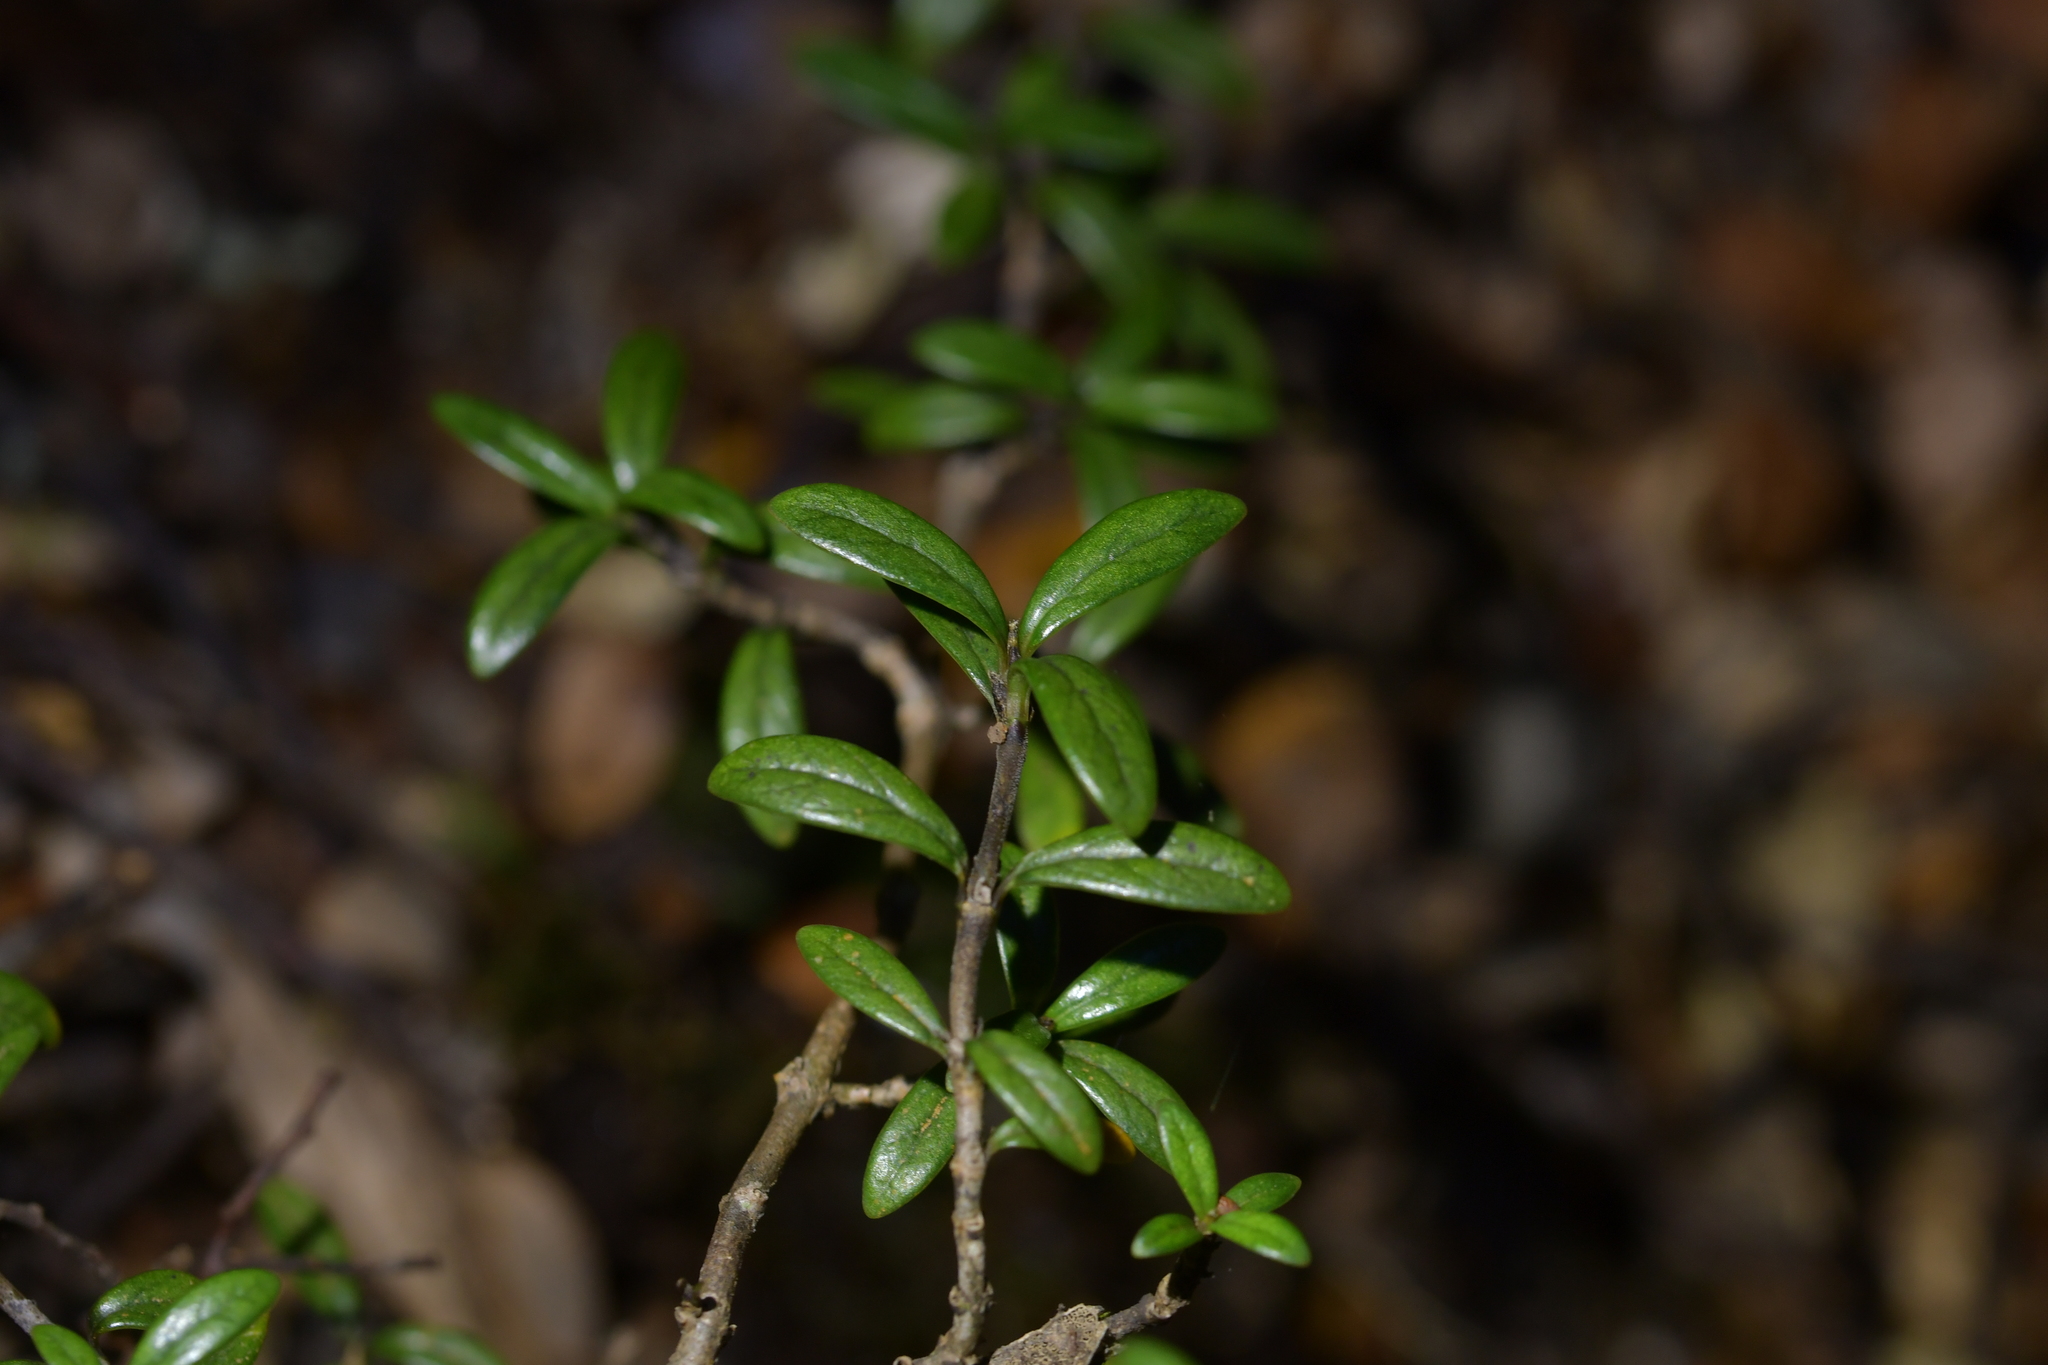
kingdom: Plantae
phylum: Tracheophyta
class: Magnoliopsida
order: Gentianales
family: Rubiaceae
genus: Coprosma
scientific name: Coprosma pseudocuneata
